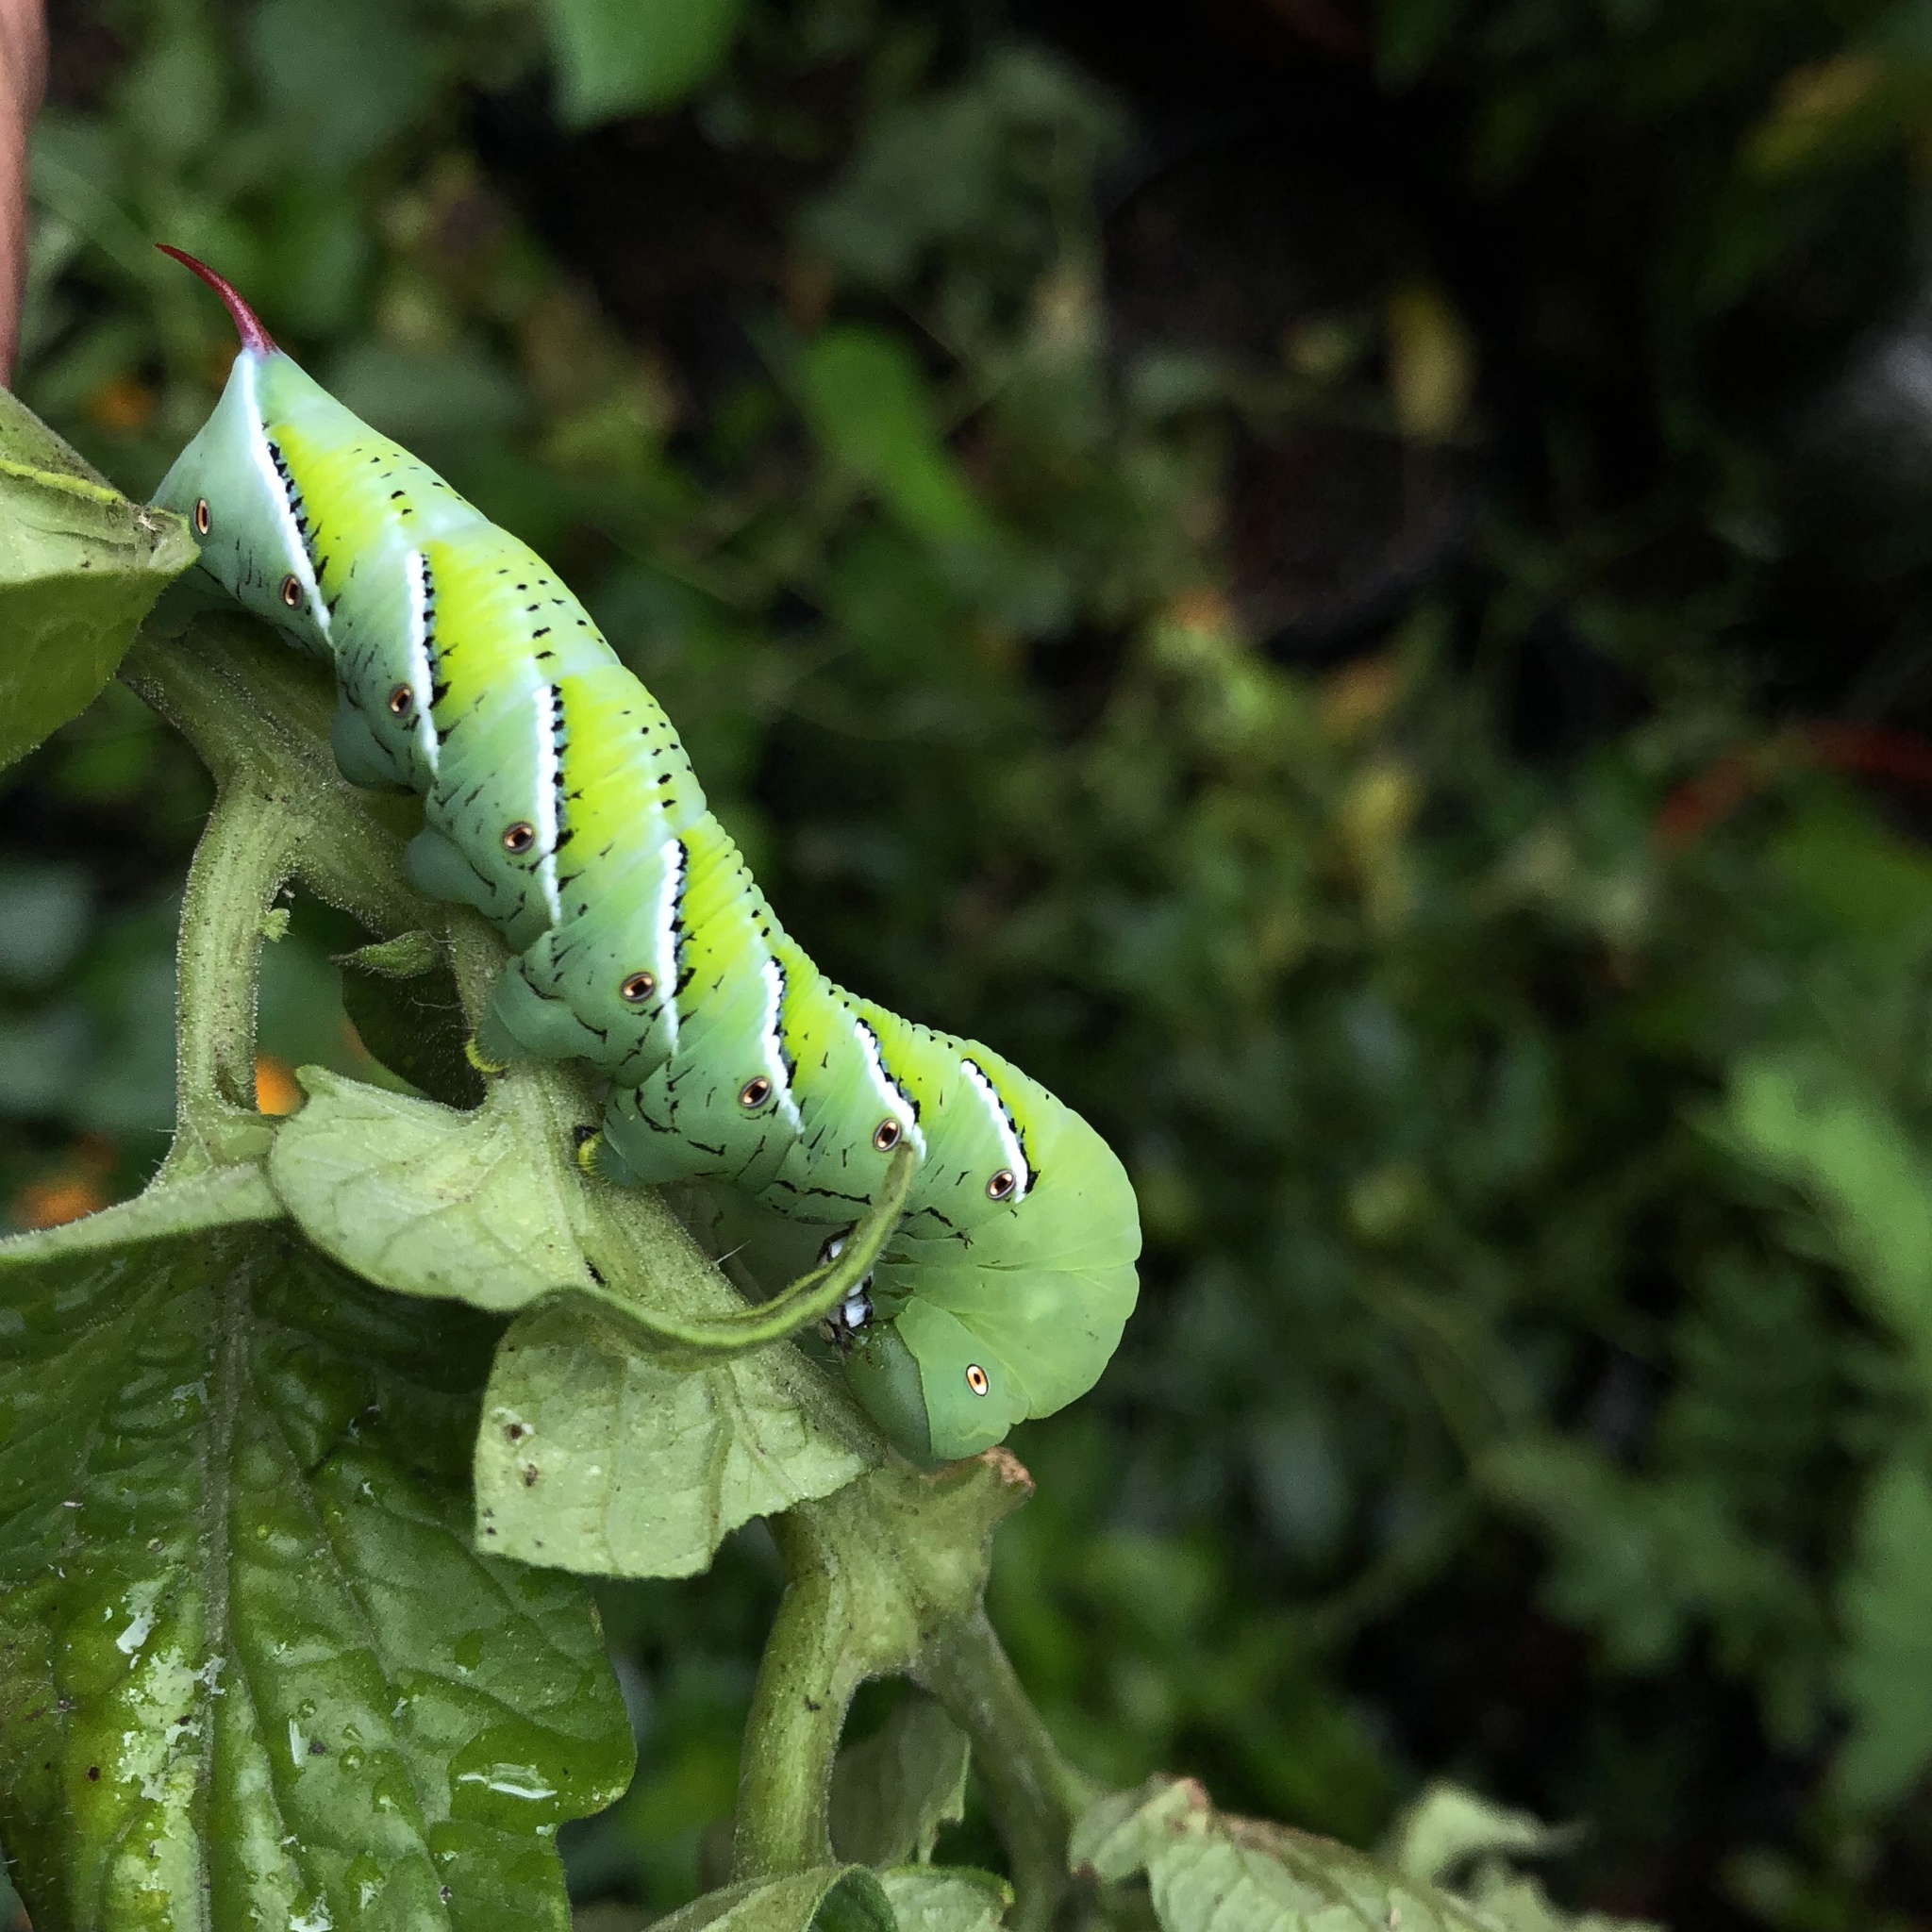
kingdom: Animalia
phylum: Arthropoda
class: Insecta
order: Lepidoptera
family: Sphingidae
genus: Manduca
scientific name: Manduca sexta
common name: Carolina sphinx
